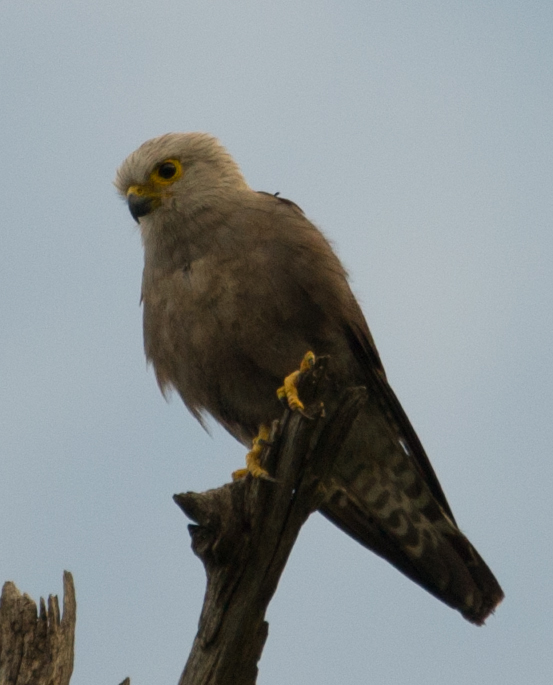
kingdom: Animalia
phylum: Chordata
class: Aves
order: Falconiformes
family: Falconidae
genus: Falco
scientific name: Falco dickinsoni
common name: Dickinson's kestrel
